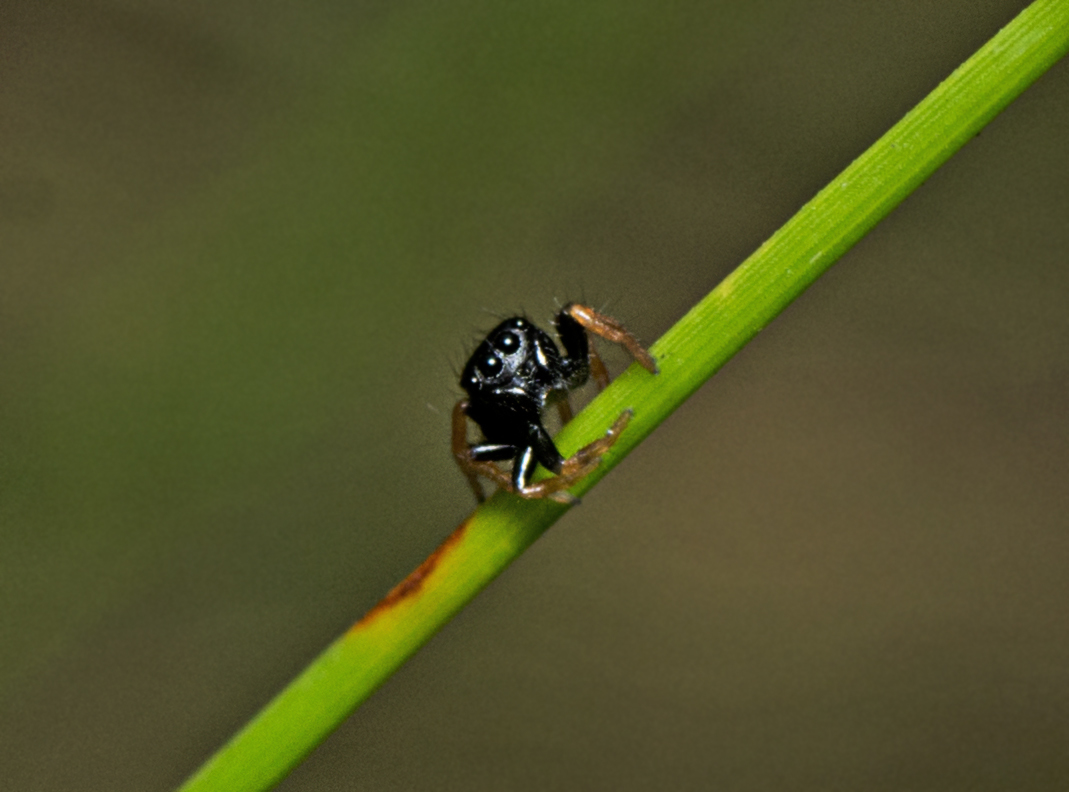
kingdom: Animalia
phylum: Arthropoda
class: Arachnida
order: Araneae
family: Salticidae
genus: Zenodorus
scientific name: Zenodorus orbiculatus
